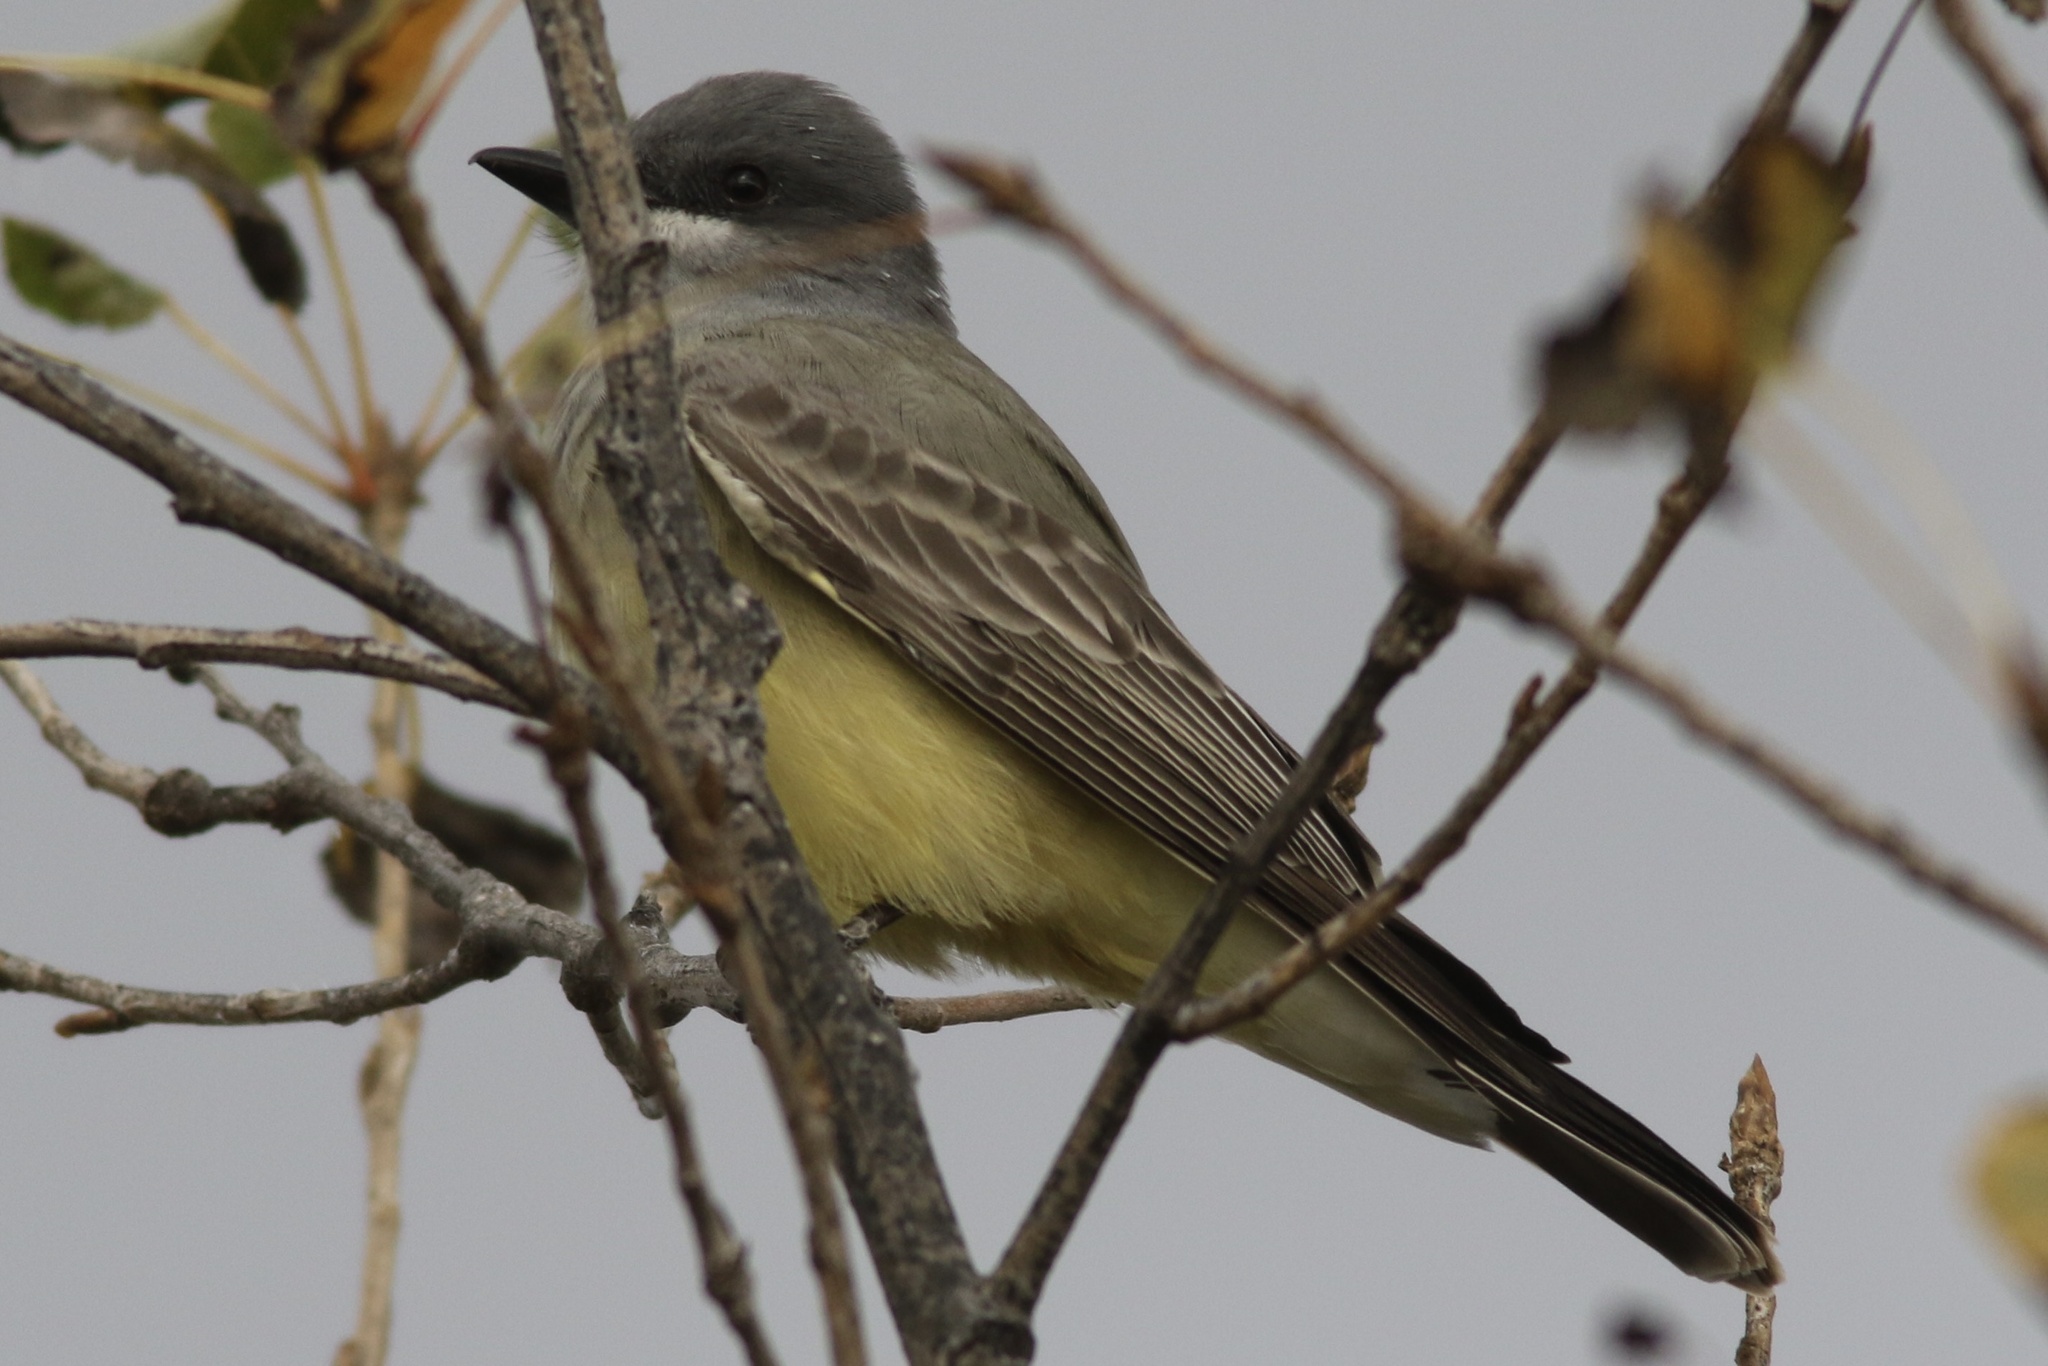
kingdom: Animalia
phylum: Chordata
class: Aves
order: Passeriformes
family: Tyrannidae
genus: Tyrannus
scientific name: Tyrannus vociferans
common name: Cassin's kingbird
